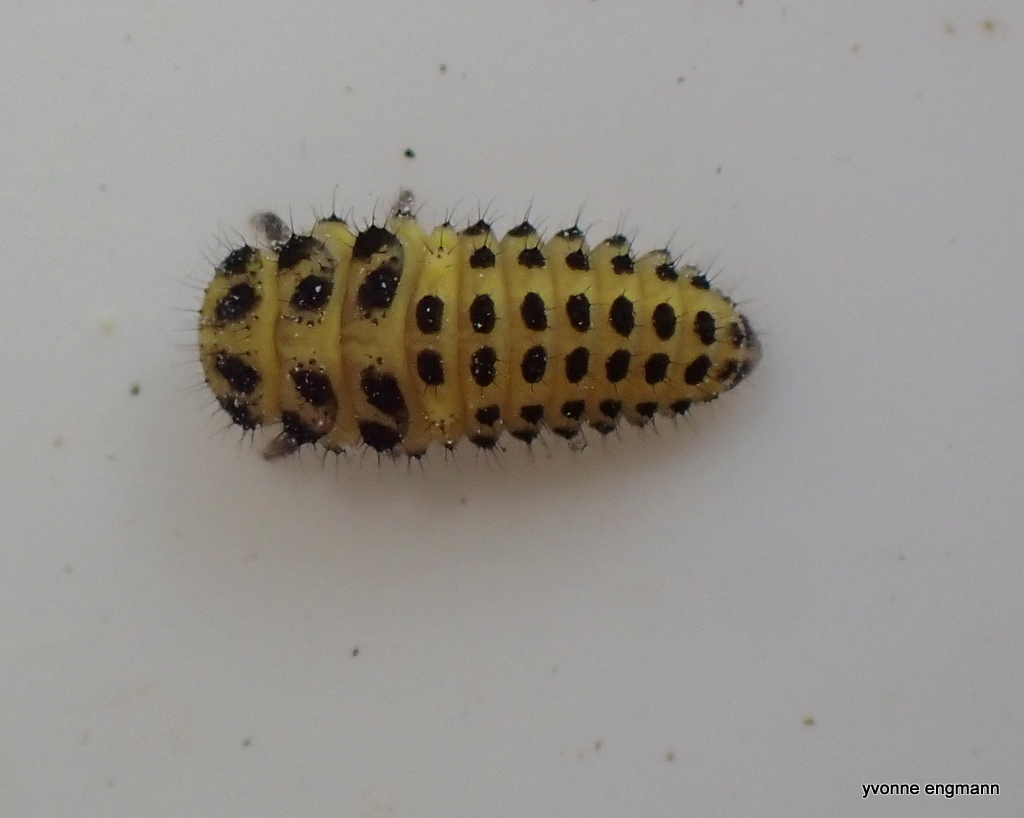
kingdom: Animalia
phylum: Arthropoda
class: Insecta
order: Coleoptera
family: Coccinellidae
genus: Psyllobora
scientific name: Psyllobora vigintiduopunctata
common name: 22-spot ladybird
